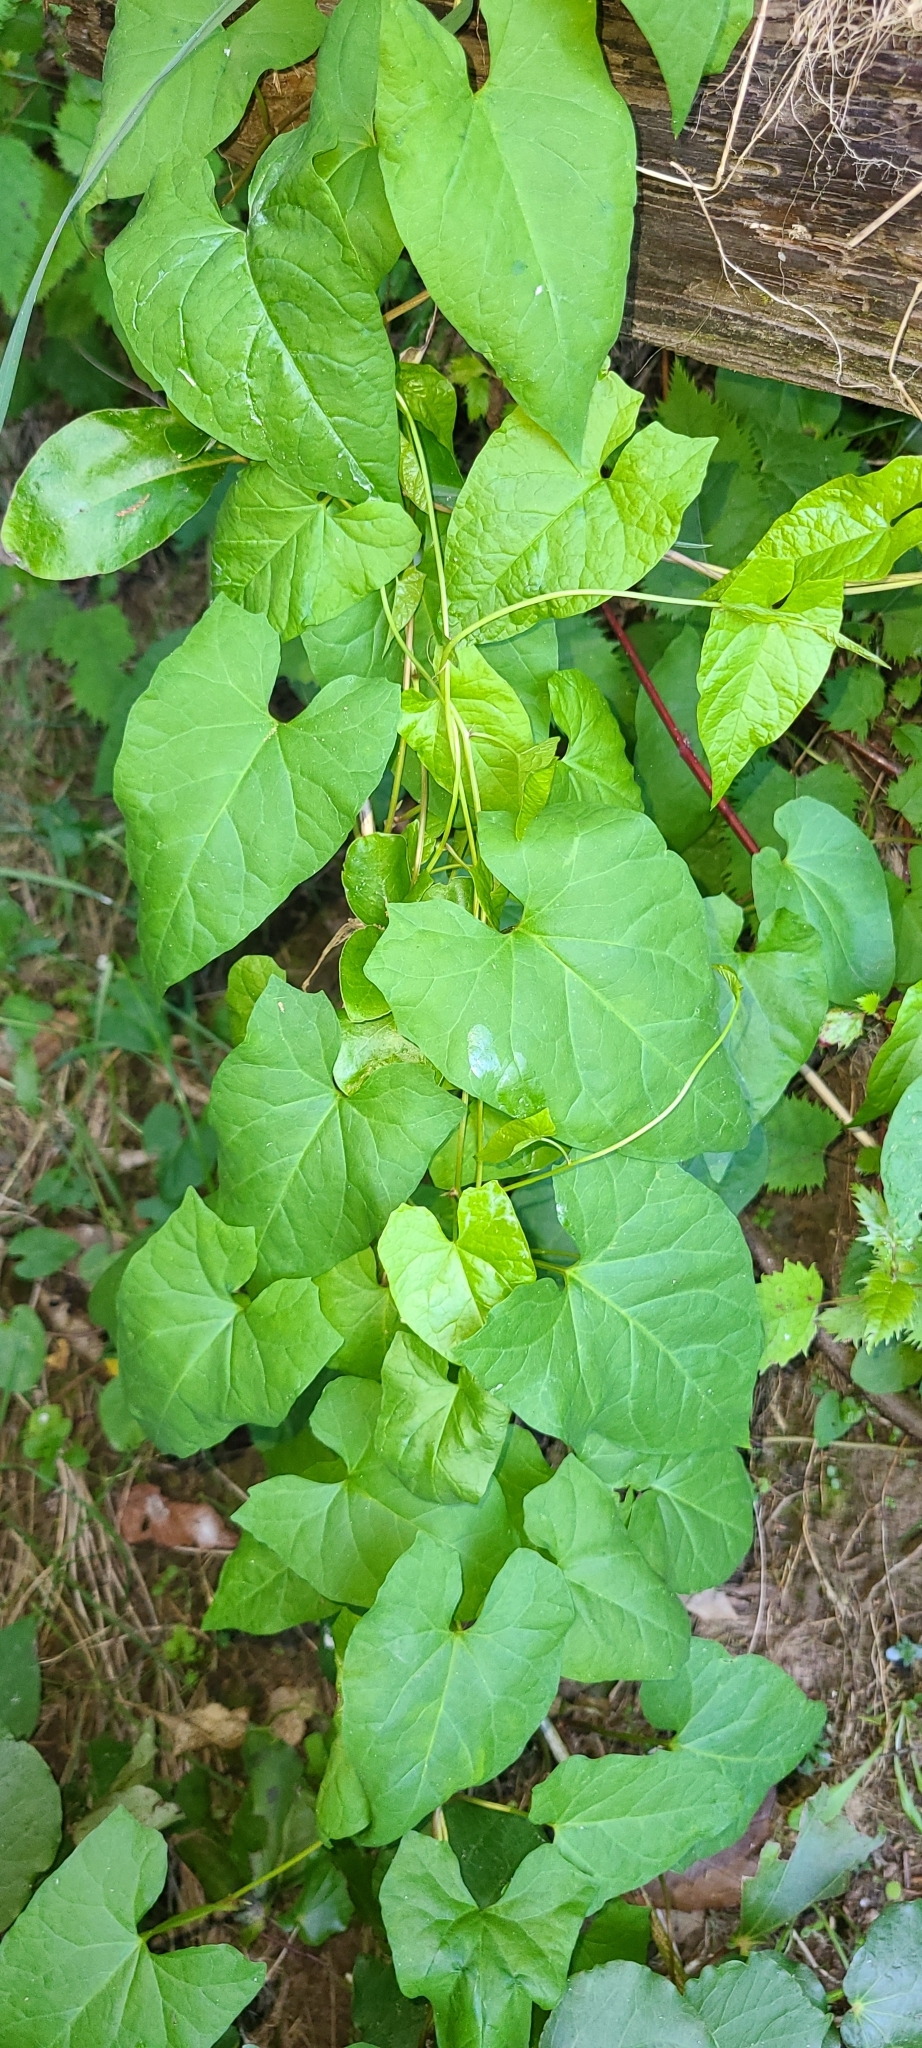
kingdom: Plantae
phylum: Tracheophyta
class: Magnoliopsida
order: Solanales
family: Convolvulaceae
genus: Calystegia
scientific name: Calystegia silvatica
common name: Large bindweed
